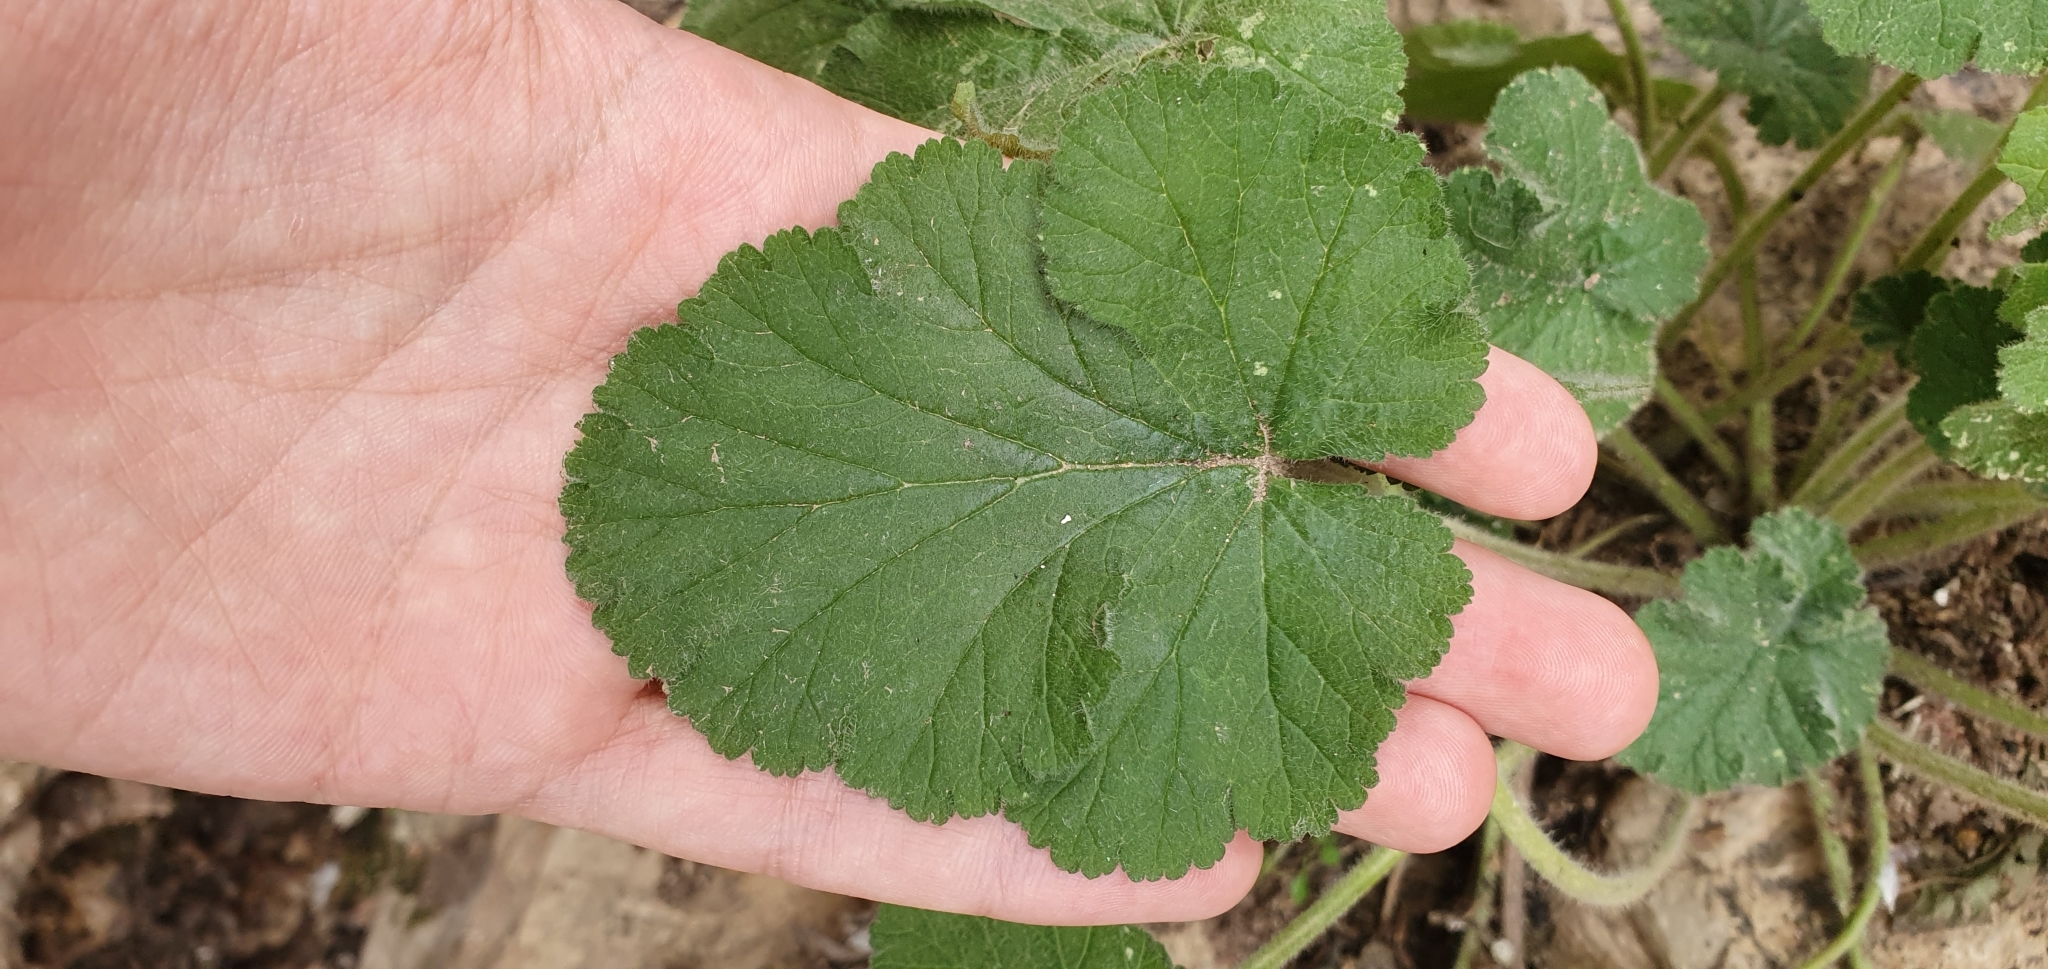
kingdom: Plantae
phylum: Tracheophyta
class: Magnoliopsida
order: Geraniales
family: Geraniaceae
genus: Erodium
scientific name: Erodium trifolium
